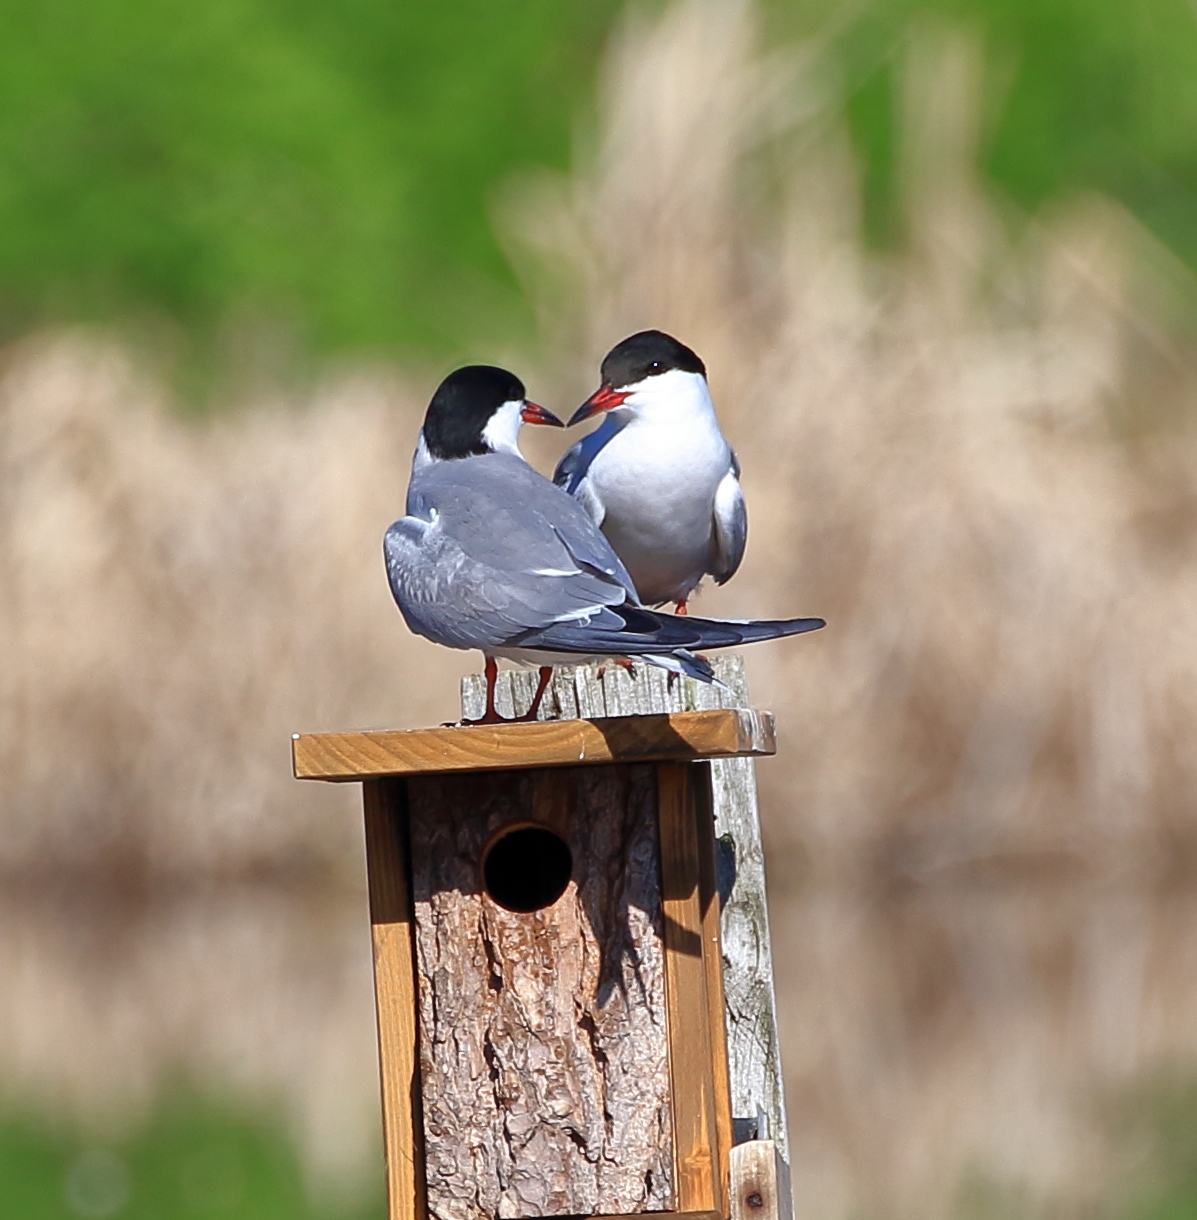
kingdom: Animalia
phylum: Chordata
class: Aves
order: Charadriiformes
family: Laridae
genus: Sterna
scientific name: Sterna hirundo
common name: Common tern
